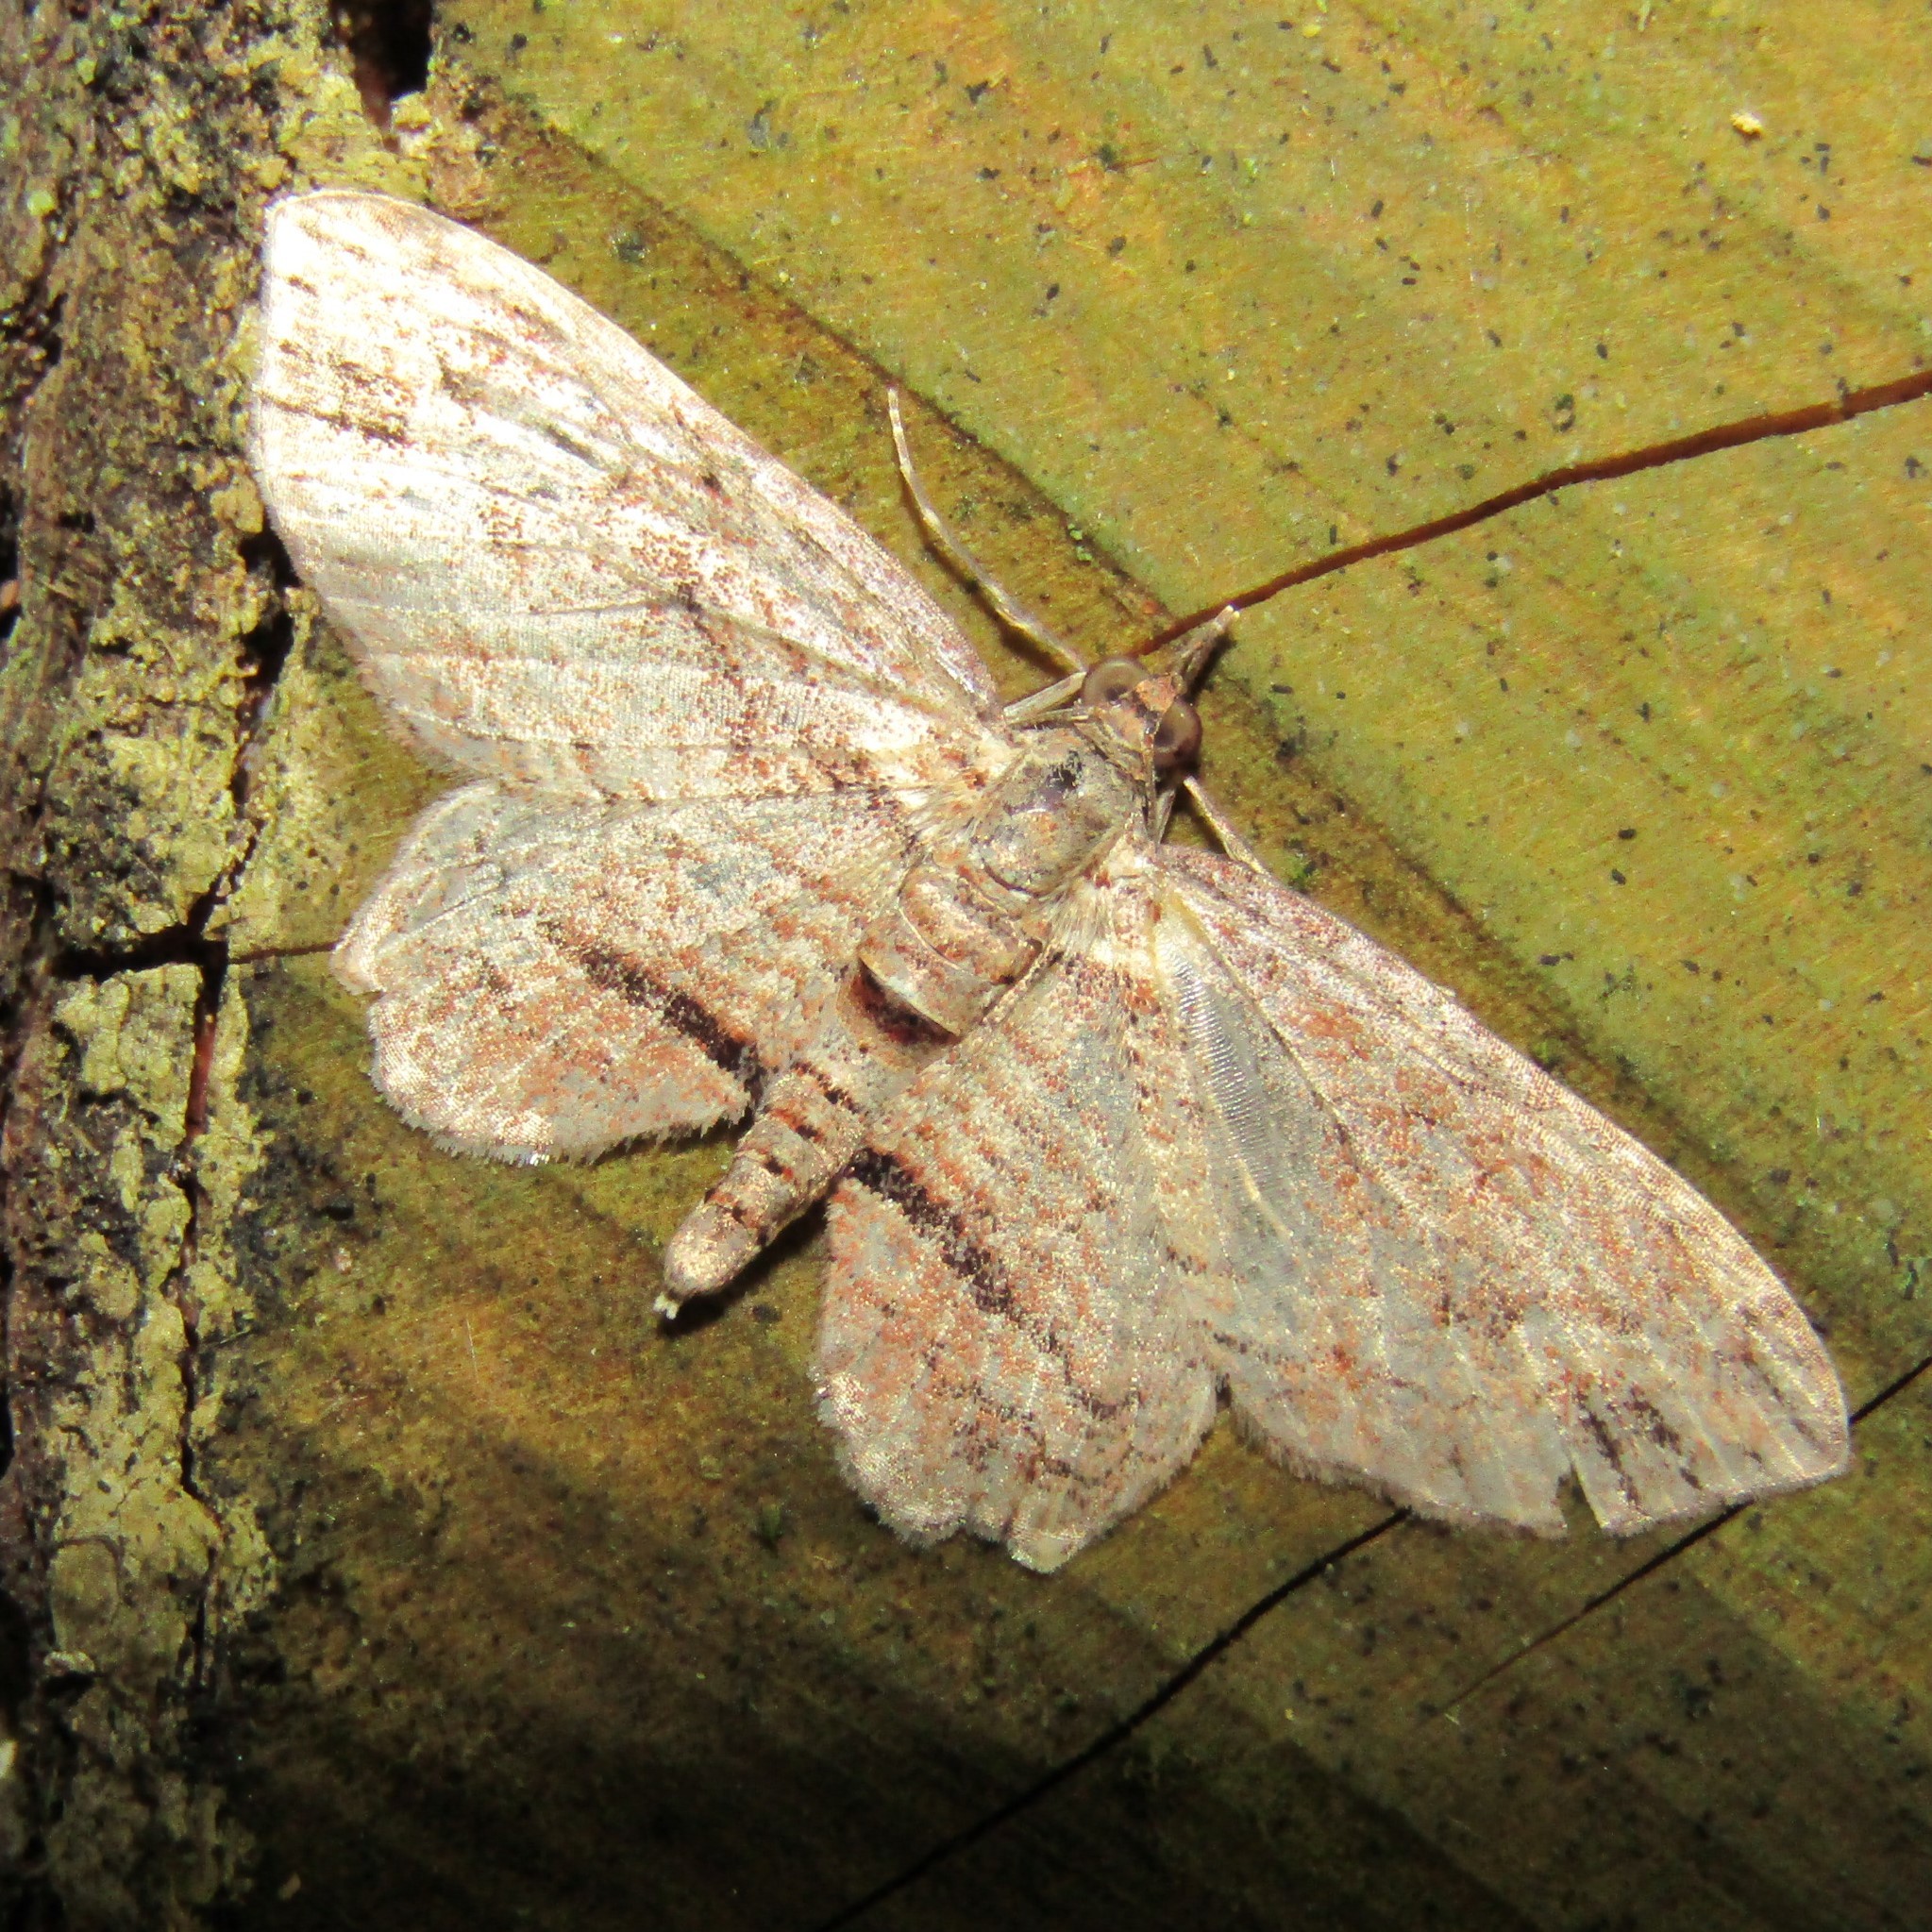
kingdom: Animalia
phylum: Arthropoda
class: Insecta
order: Lepidoptera
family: Geometridae
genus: Chloroclystis
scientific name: Chloroclystis filata
